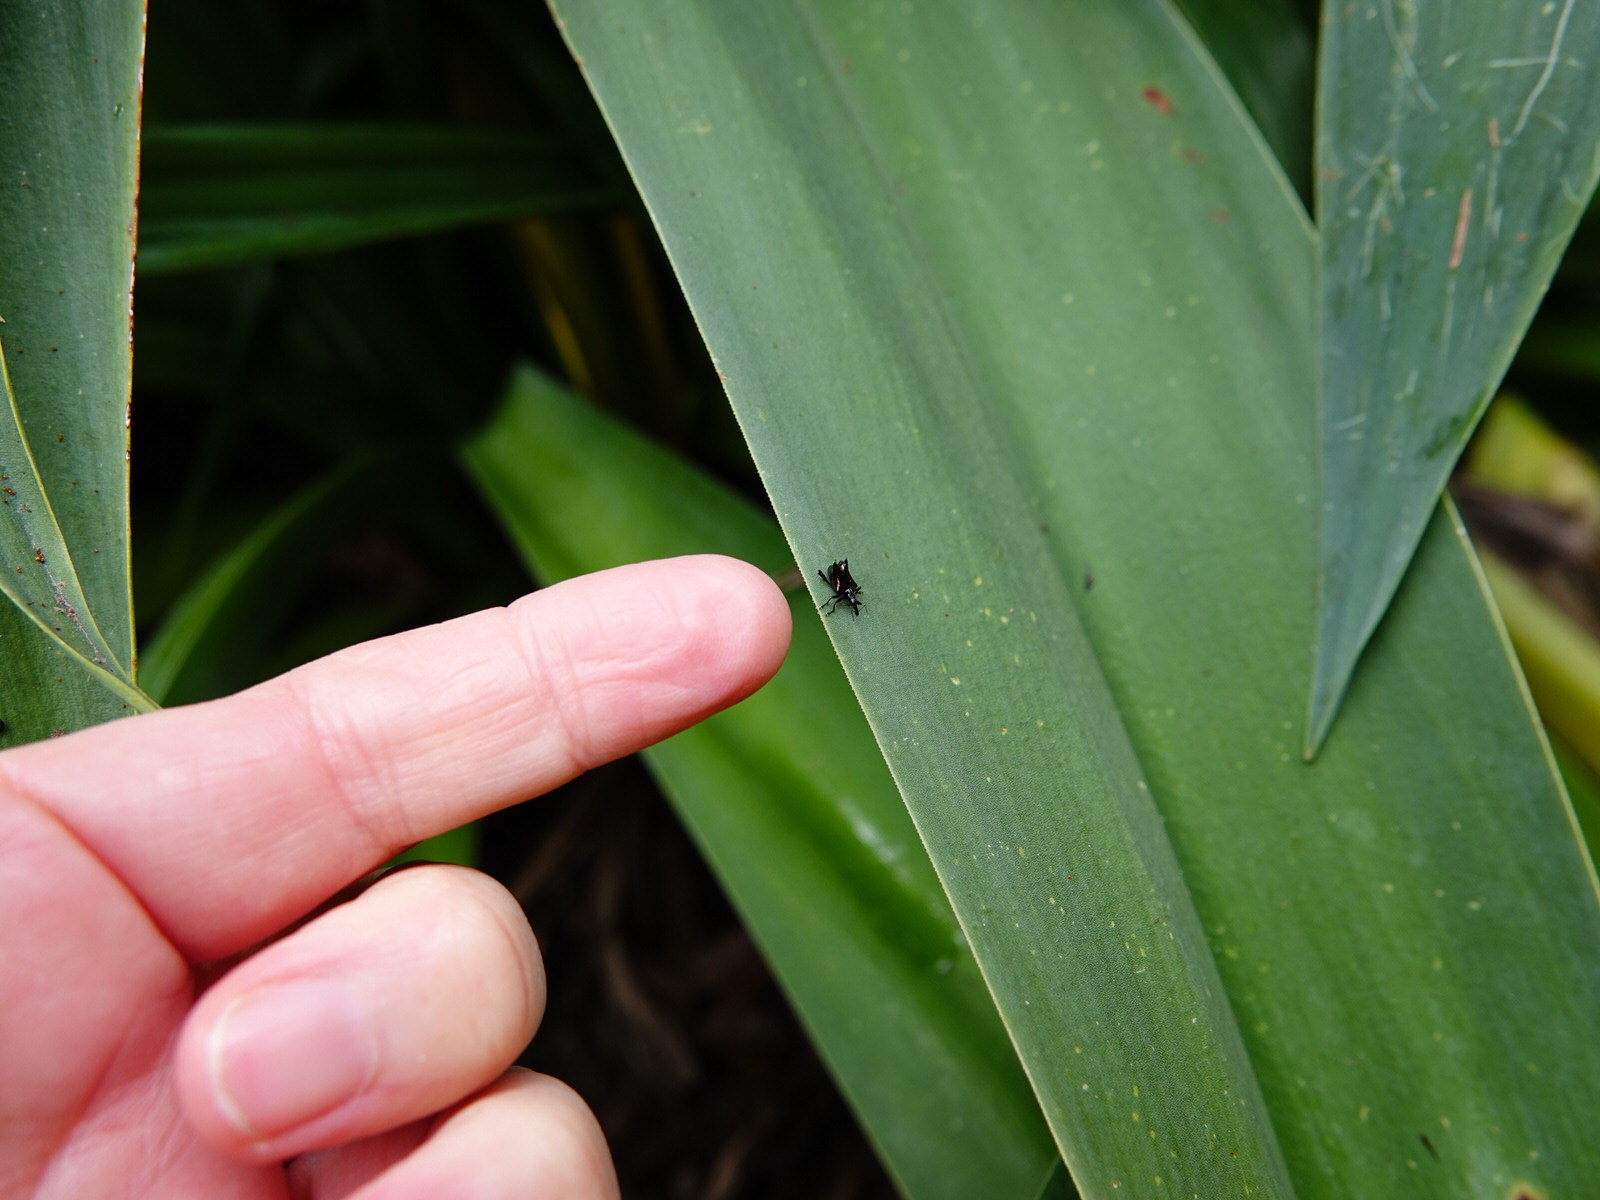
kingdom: Animalia
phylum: Arthropoda
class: Insecta
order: Coleoptera
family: Curculionidae
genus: Scolopterus
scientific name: Scolopterus penicillatus
